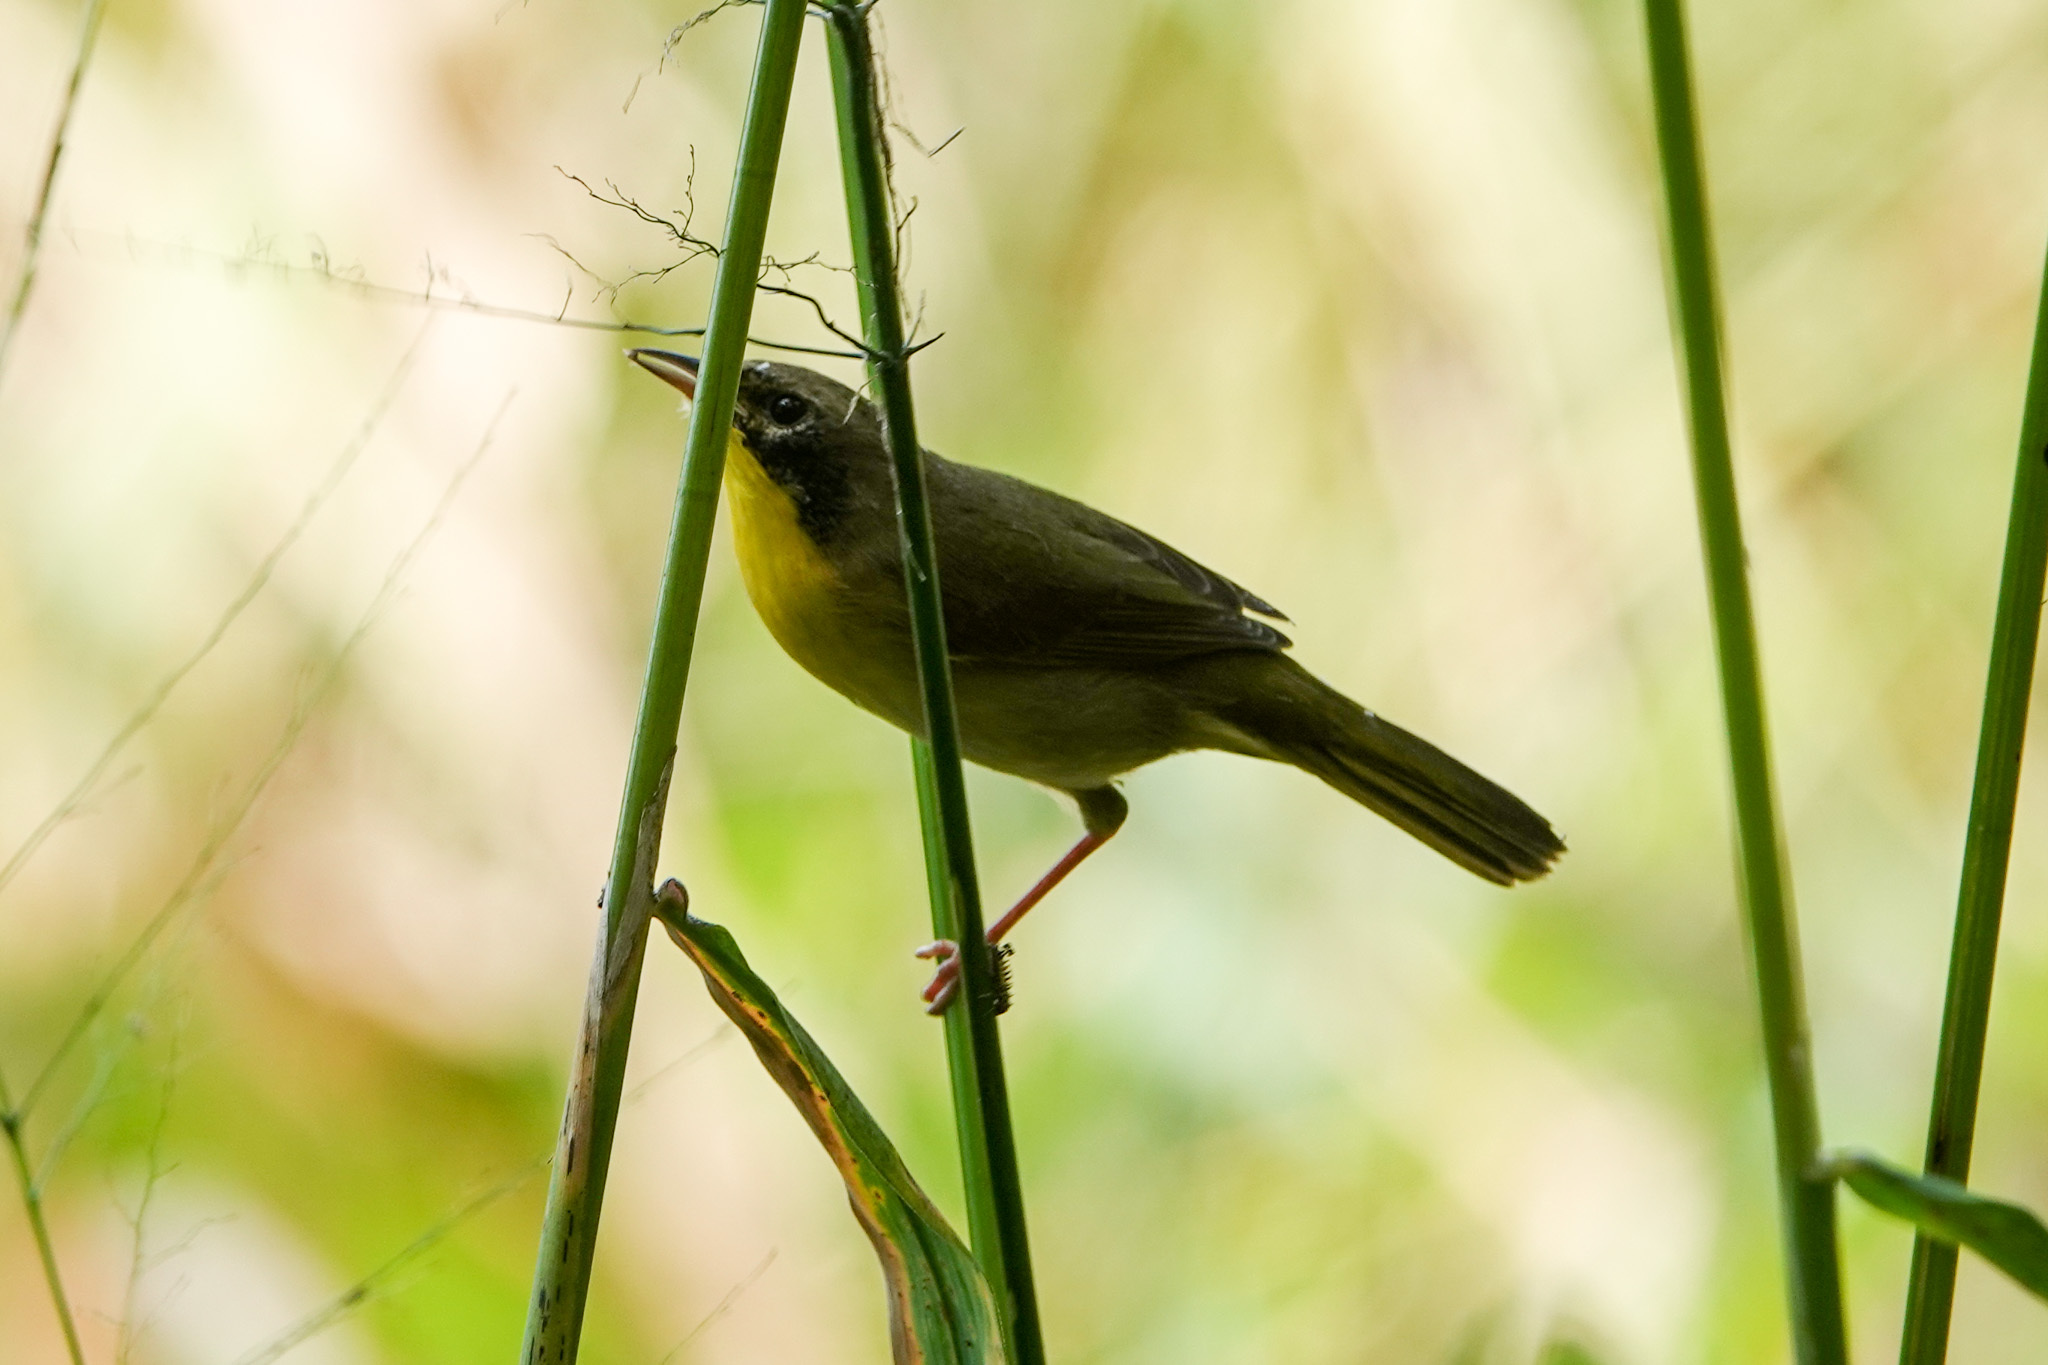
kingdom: Animalia
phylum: Chordata
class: Aves
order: Passeriformes
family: Parulidae
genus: Geothlypis
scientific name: Geothlypis trichas
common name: Common yellowthroat
